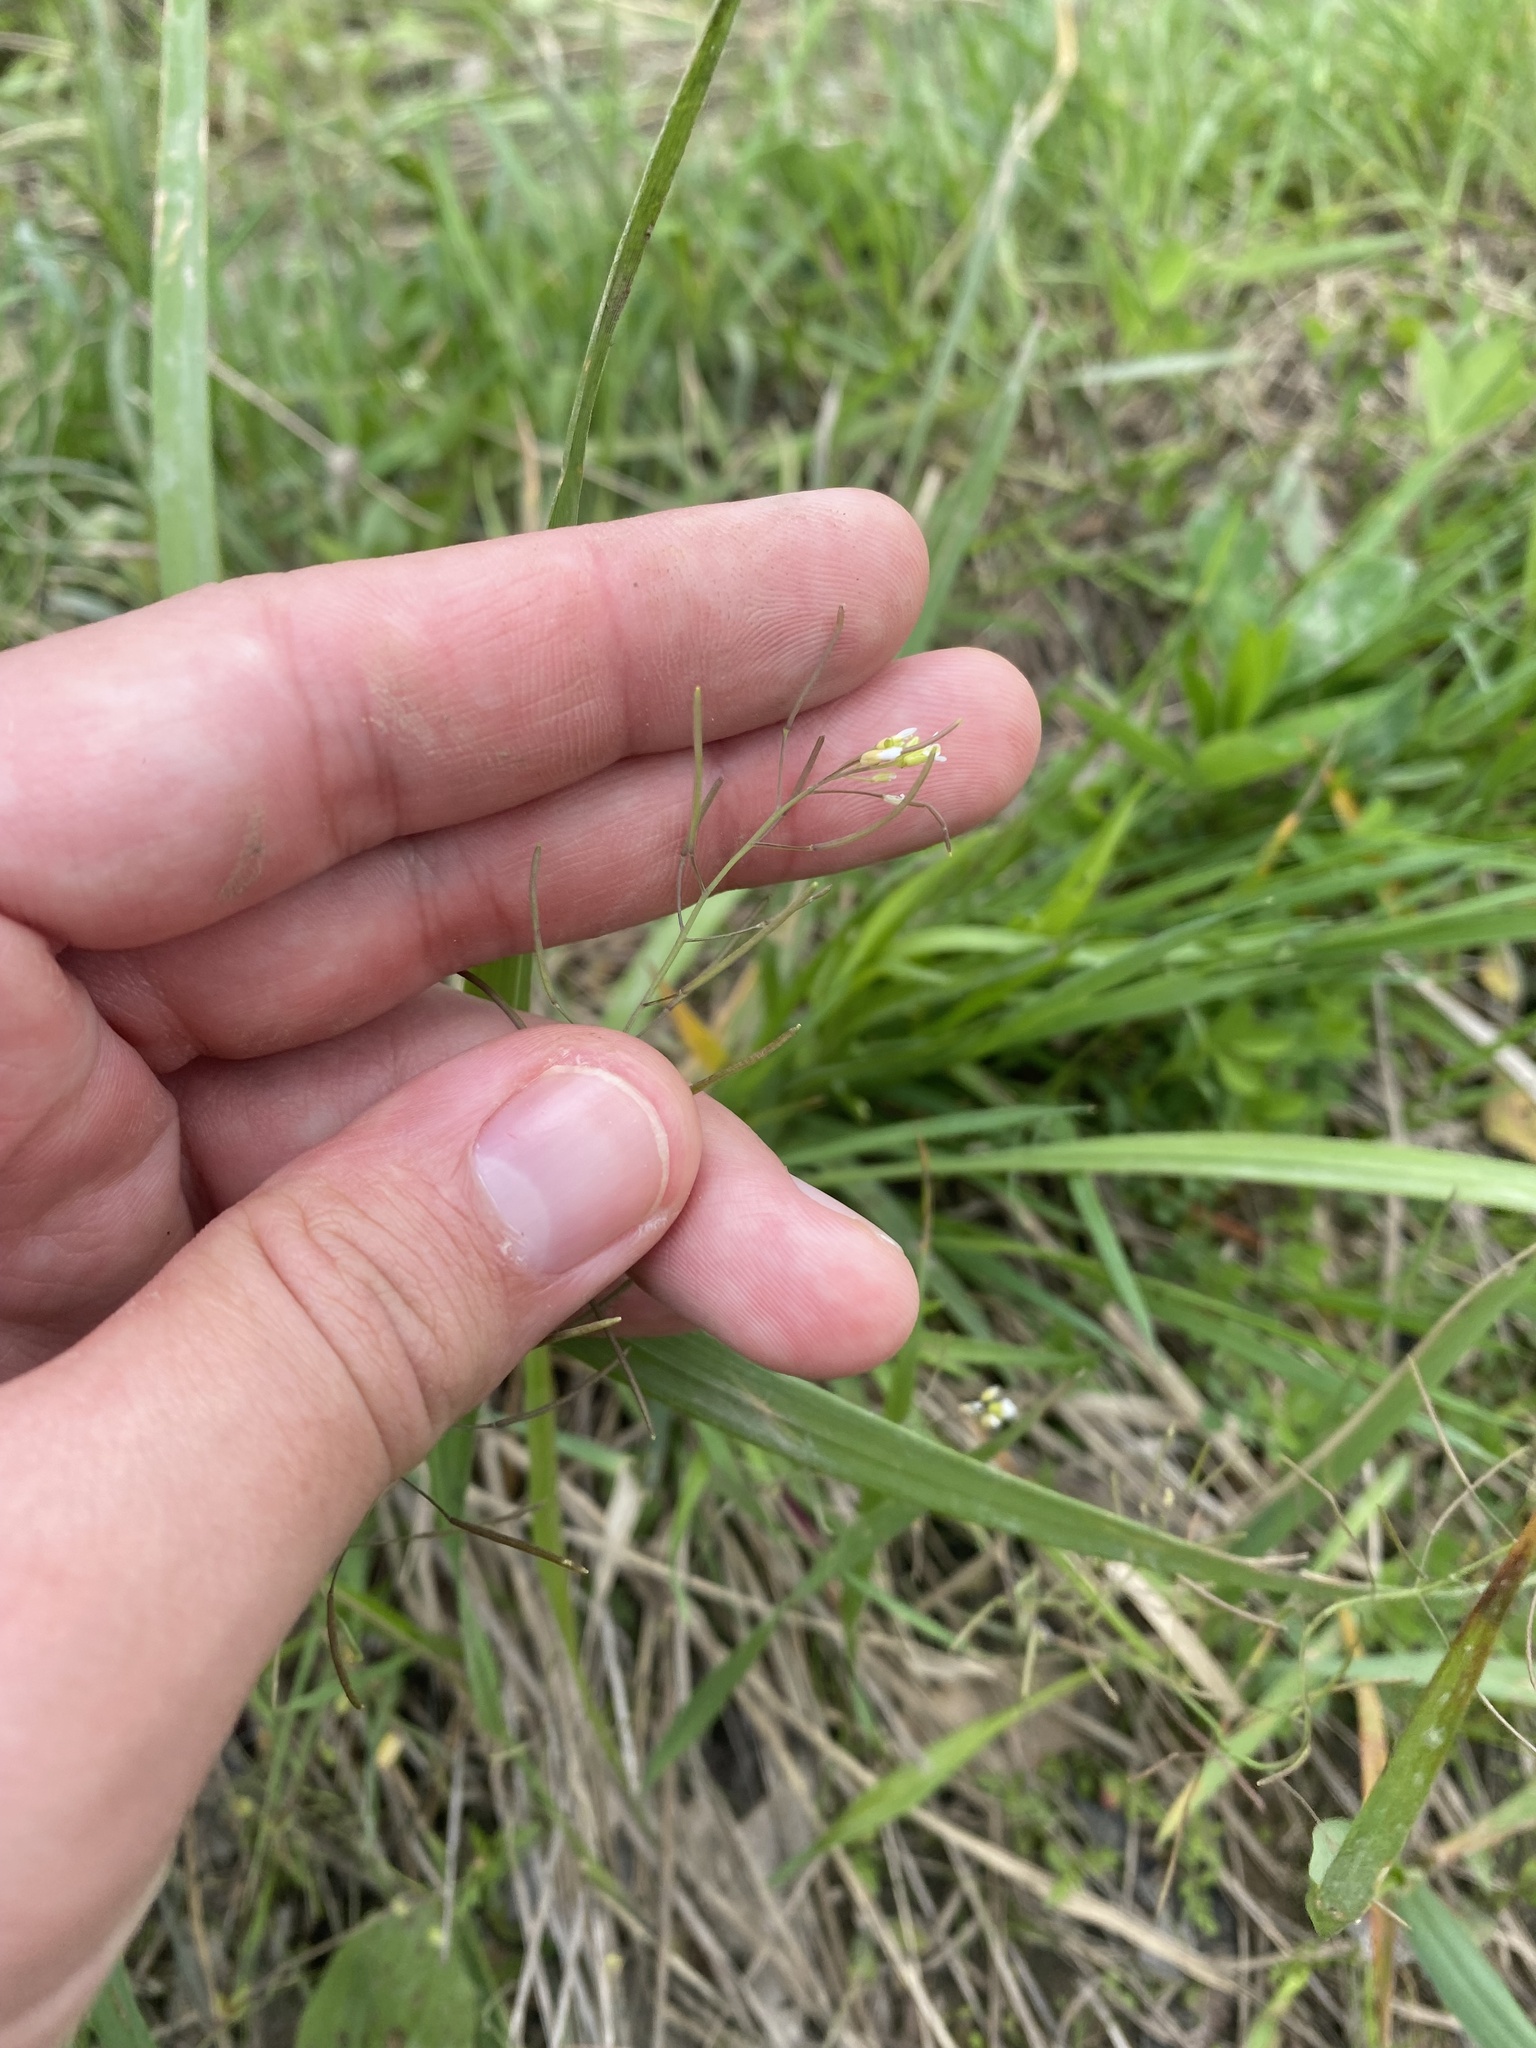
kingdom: Plantae
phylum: Tracheophyta
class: Magnoliopsida
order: Brassicales
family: Brassicaceae
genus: Arabidopsis
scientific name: Arabidopsis thaliana
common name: Thale cress
